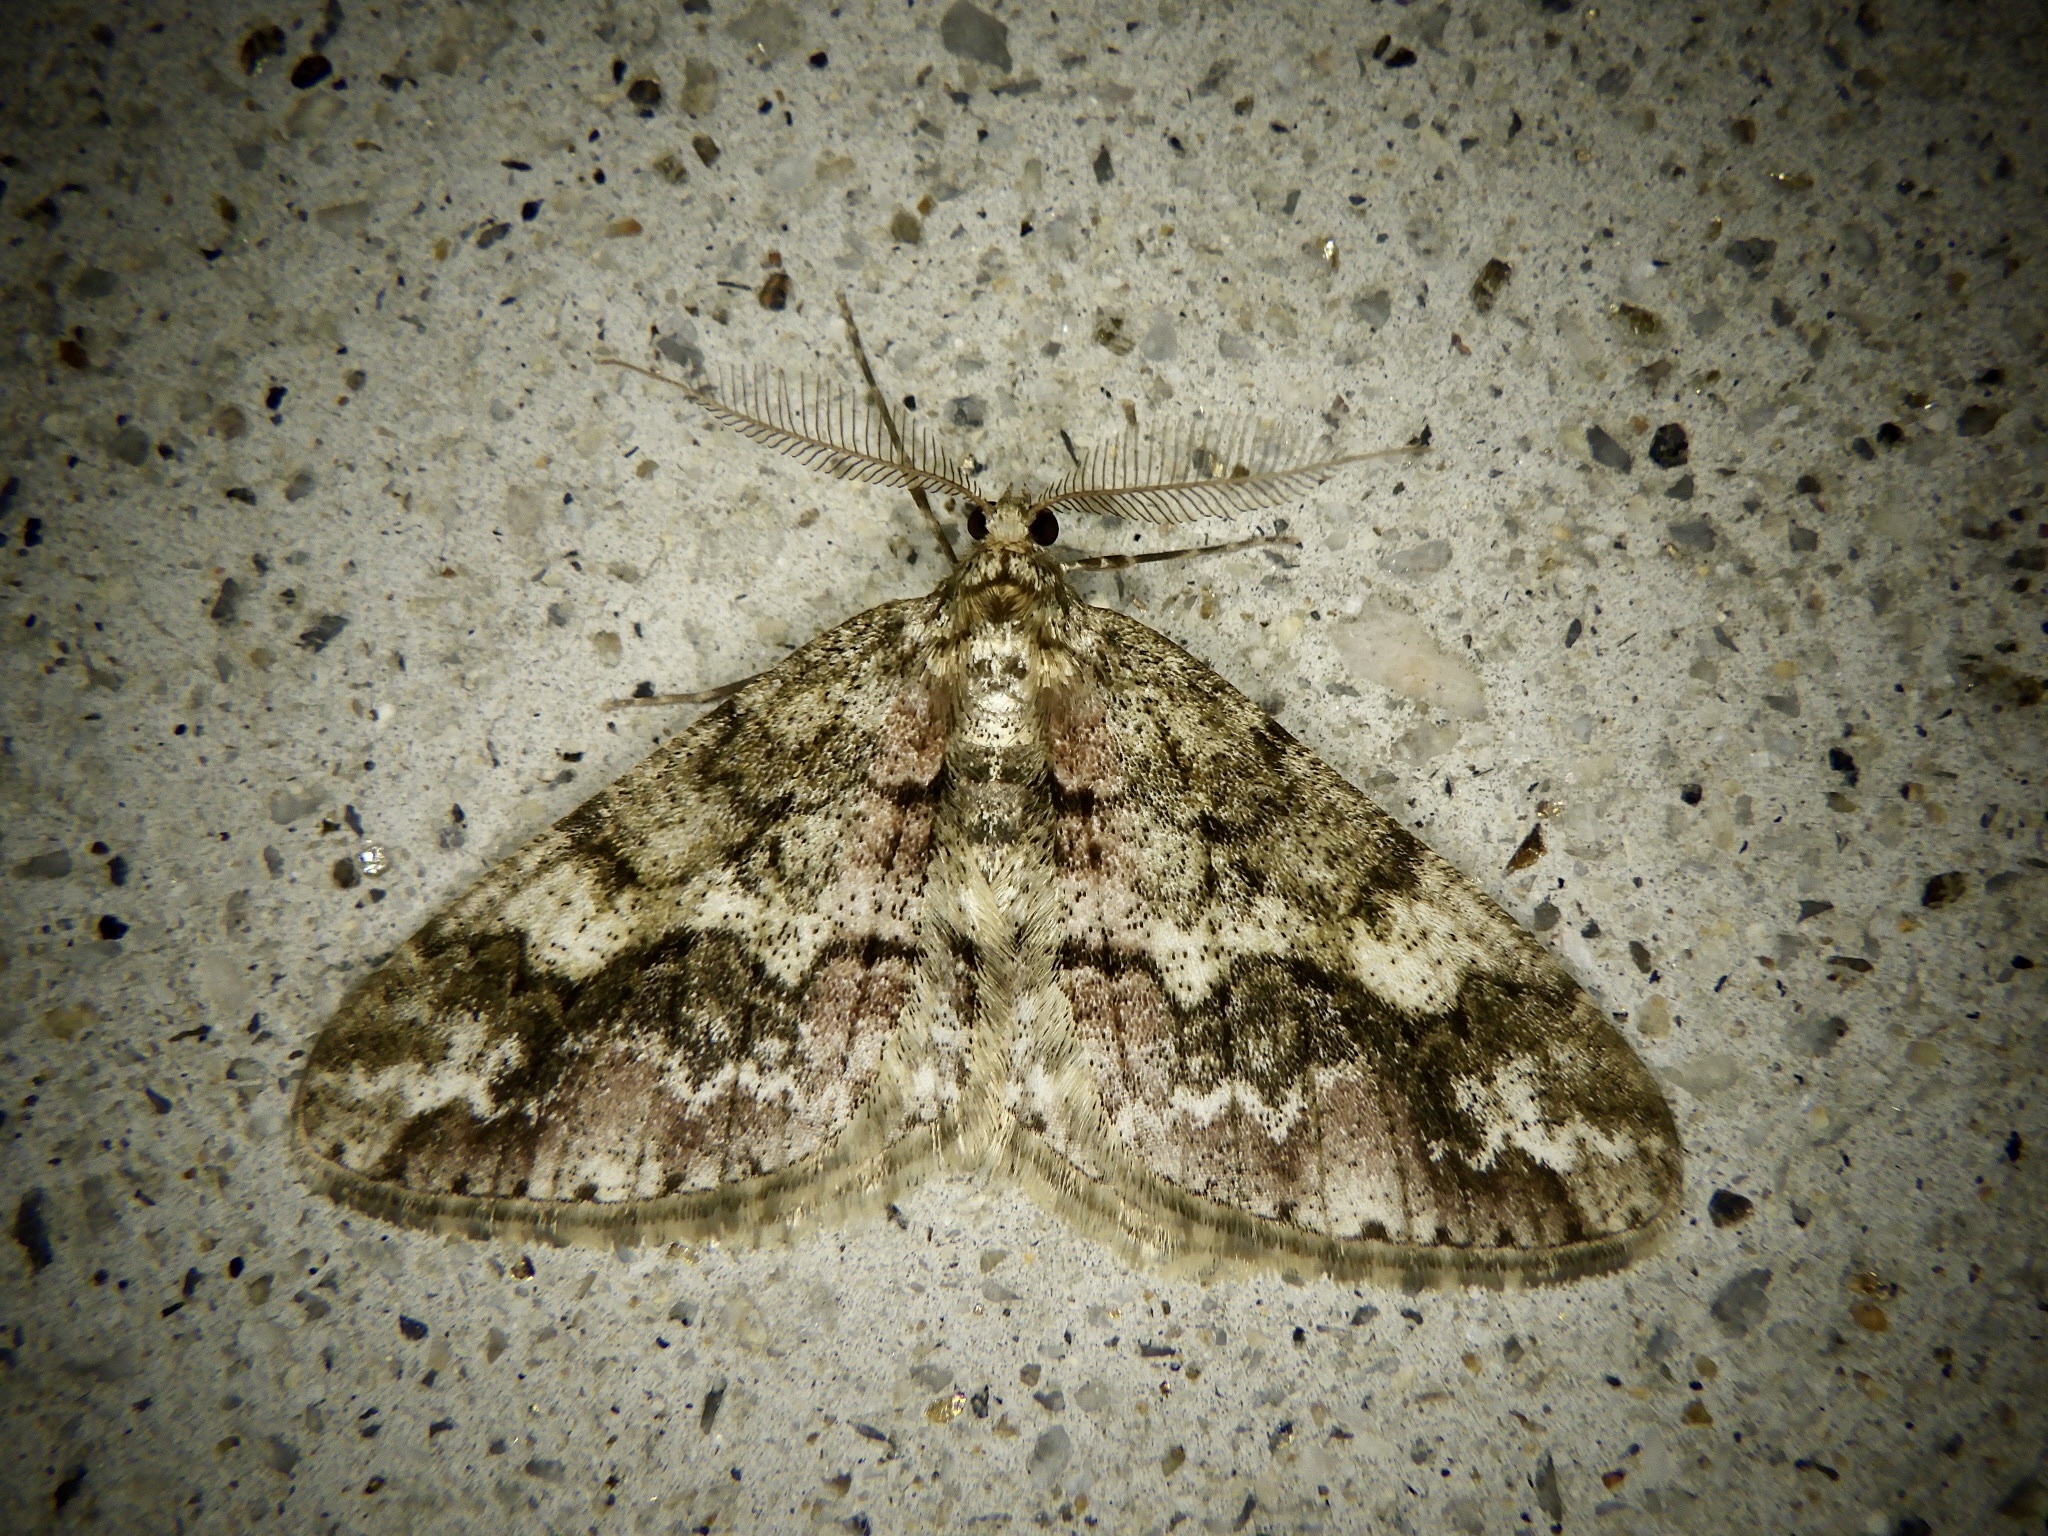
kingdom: Animalia
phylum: Arthropoda
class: Insecta
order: Lepidoptera
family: Geometridae
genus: Pseuderannis
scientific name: Pseuderannis amplipennis
